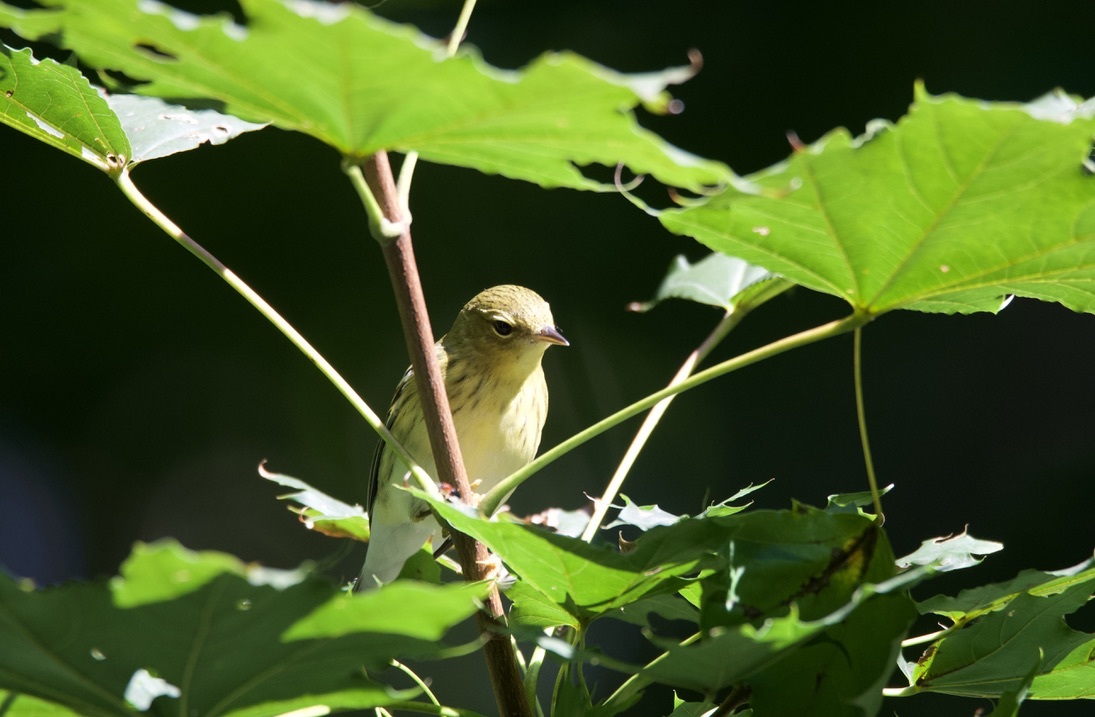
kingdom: Animalia
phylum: Chordata
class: Aves
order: Passeriformes
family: Parulidae
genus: Setophaga
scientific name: Setophaga striata
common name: Blackpoll warbler
